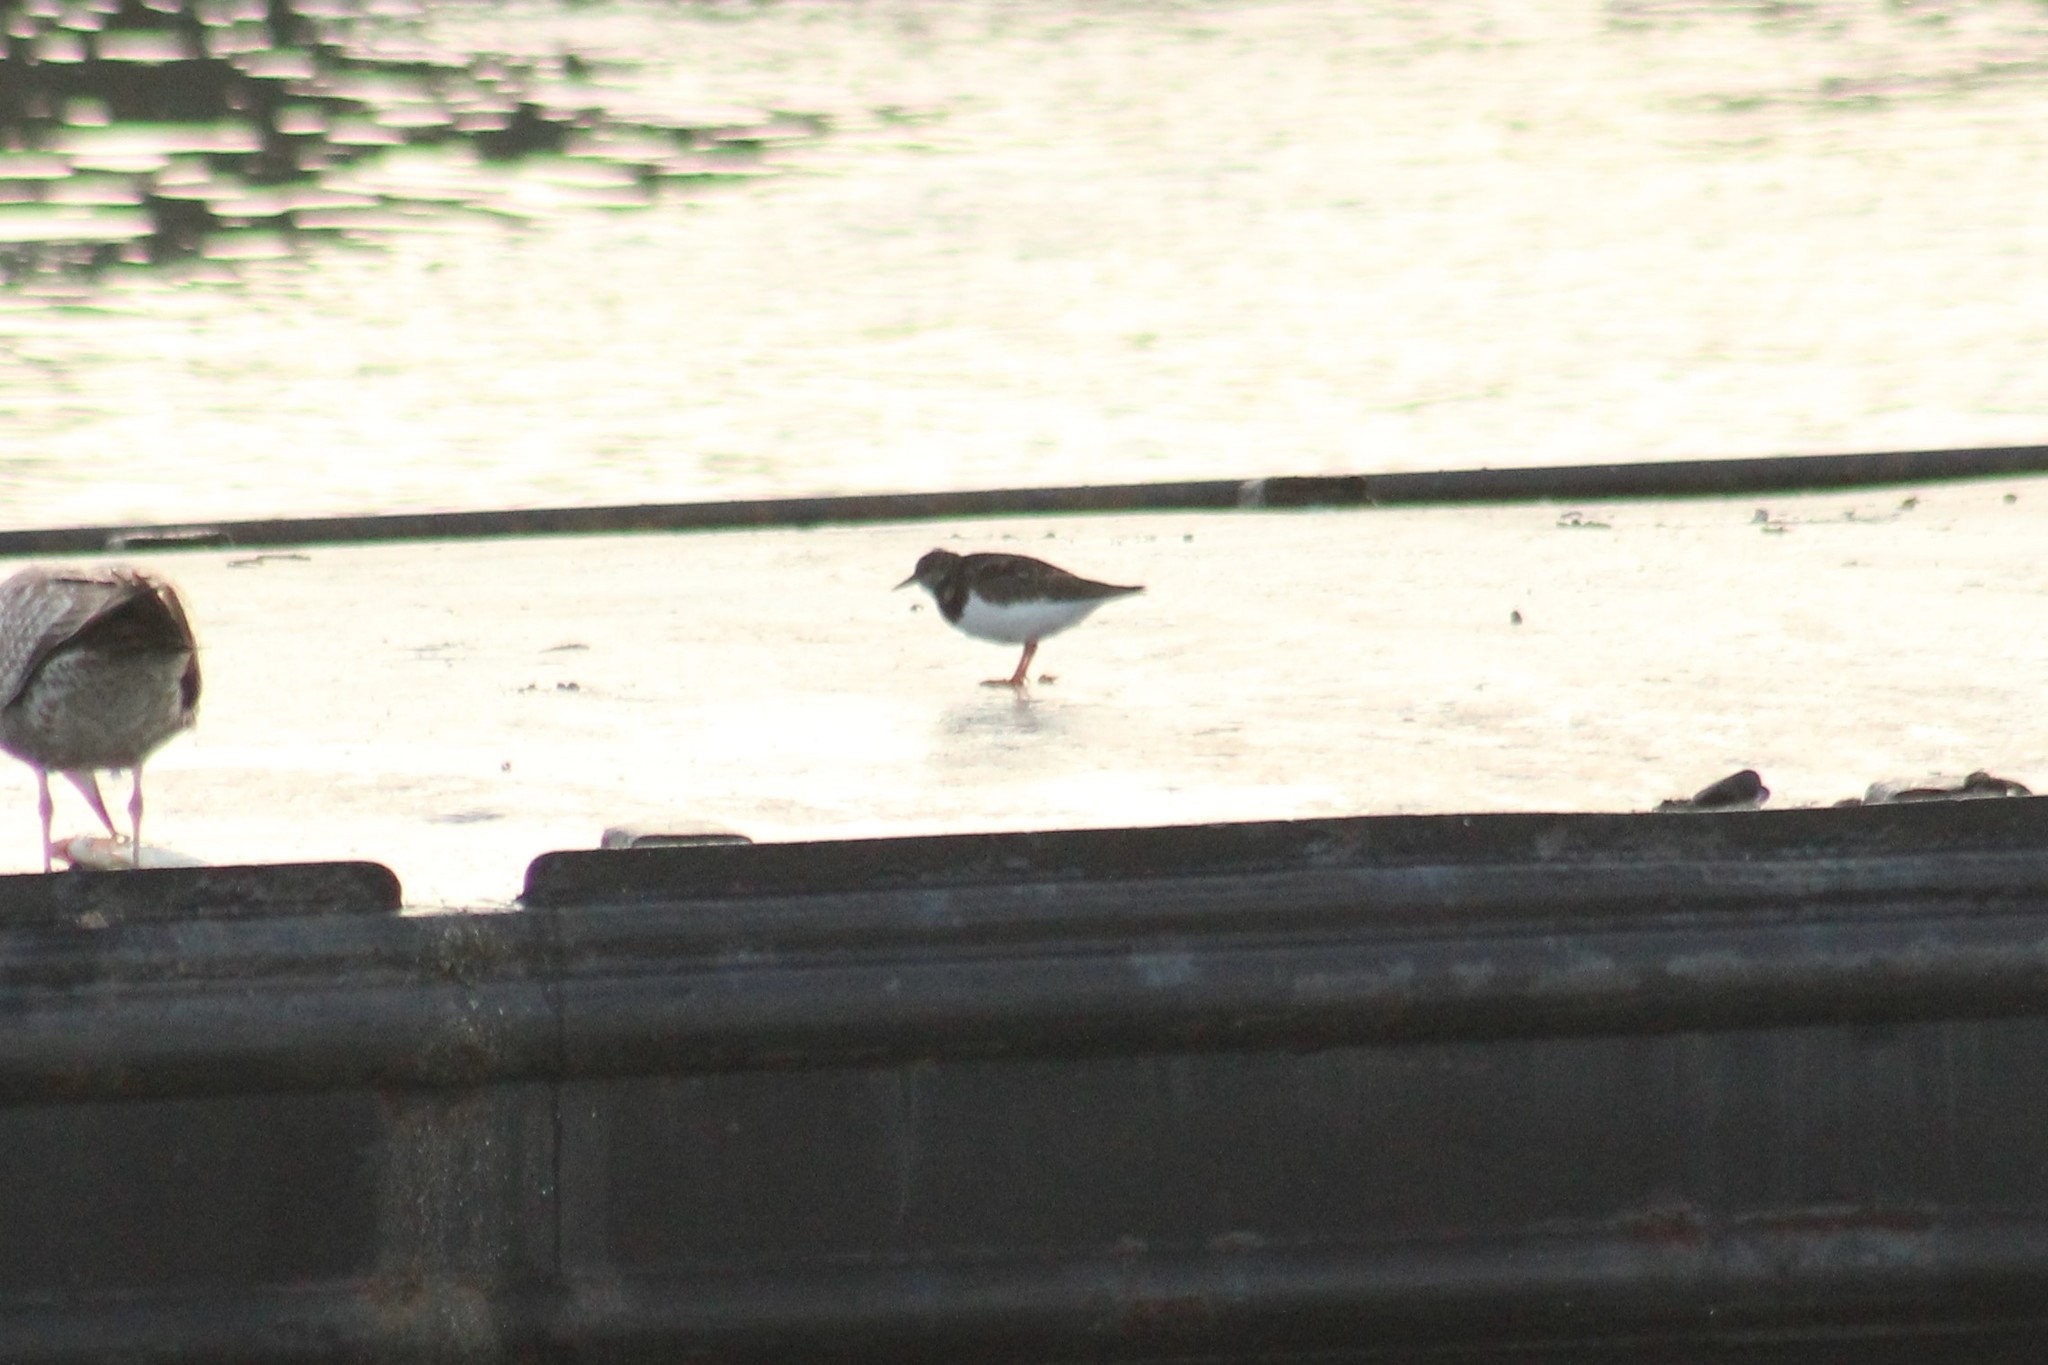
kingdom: Animalia
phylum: Chordata
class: Aves
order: Charadriiformes
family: Scolopacidae
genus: Arenaria
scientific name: Arenaria interpres
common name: Ruddy turnstone
